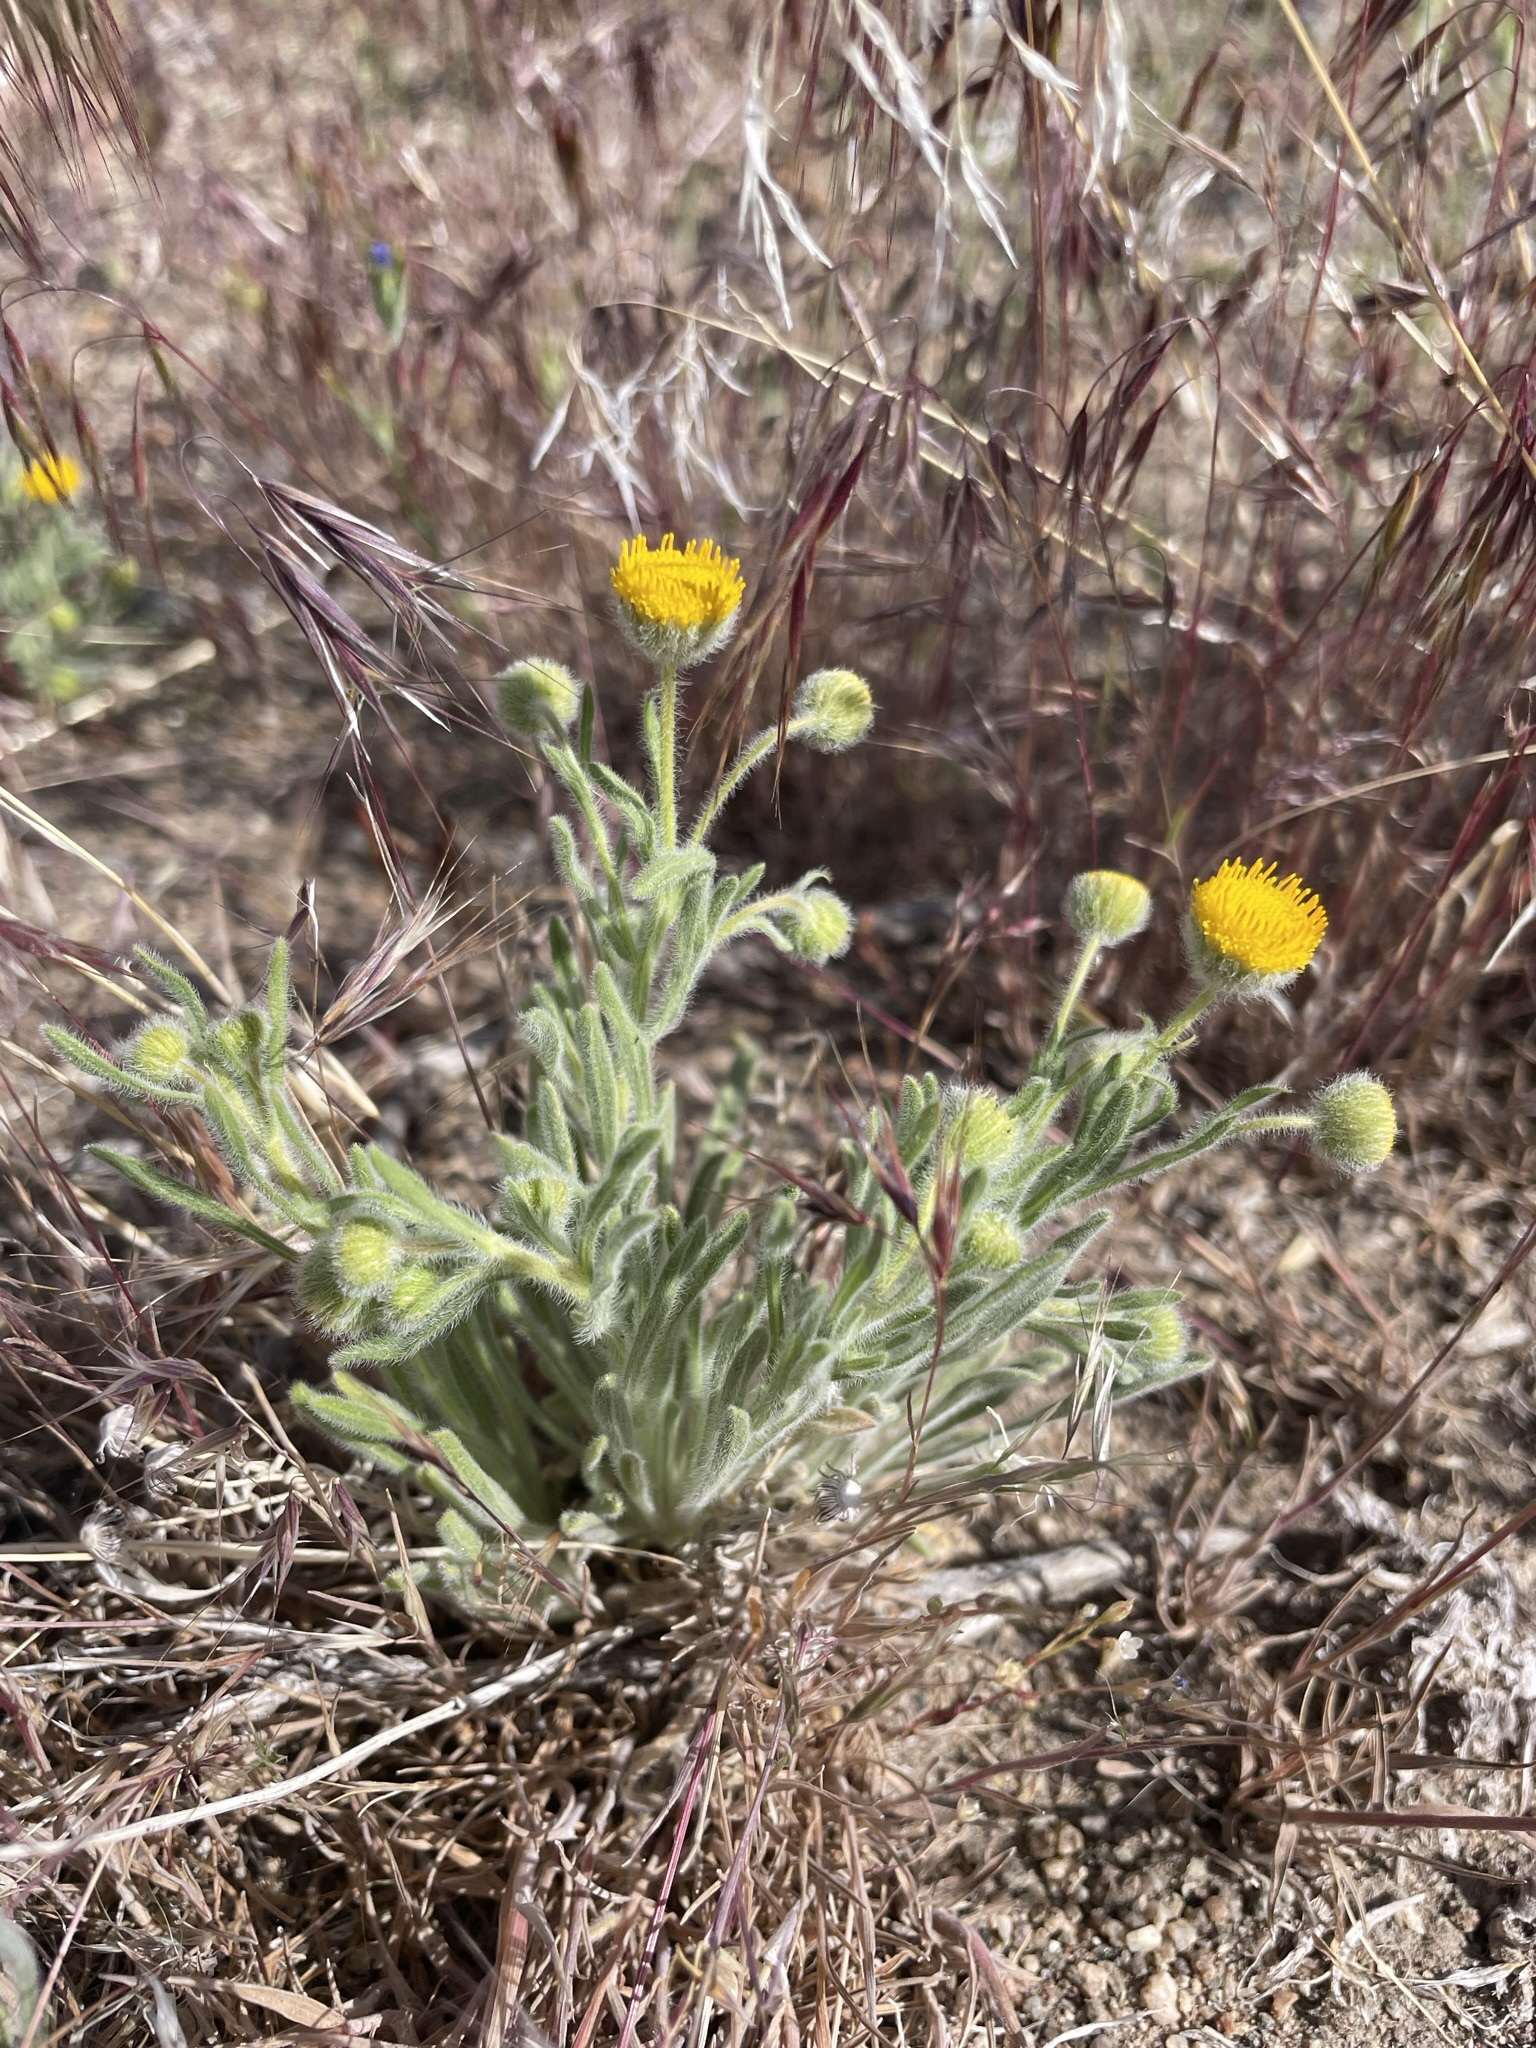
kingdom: Plantae
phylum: Tracheophyta
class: Magnoliopsida
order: Asterales
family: Asteraceae
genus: Erigeron
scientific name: Erigeron aphanactis
